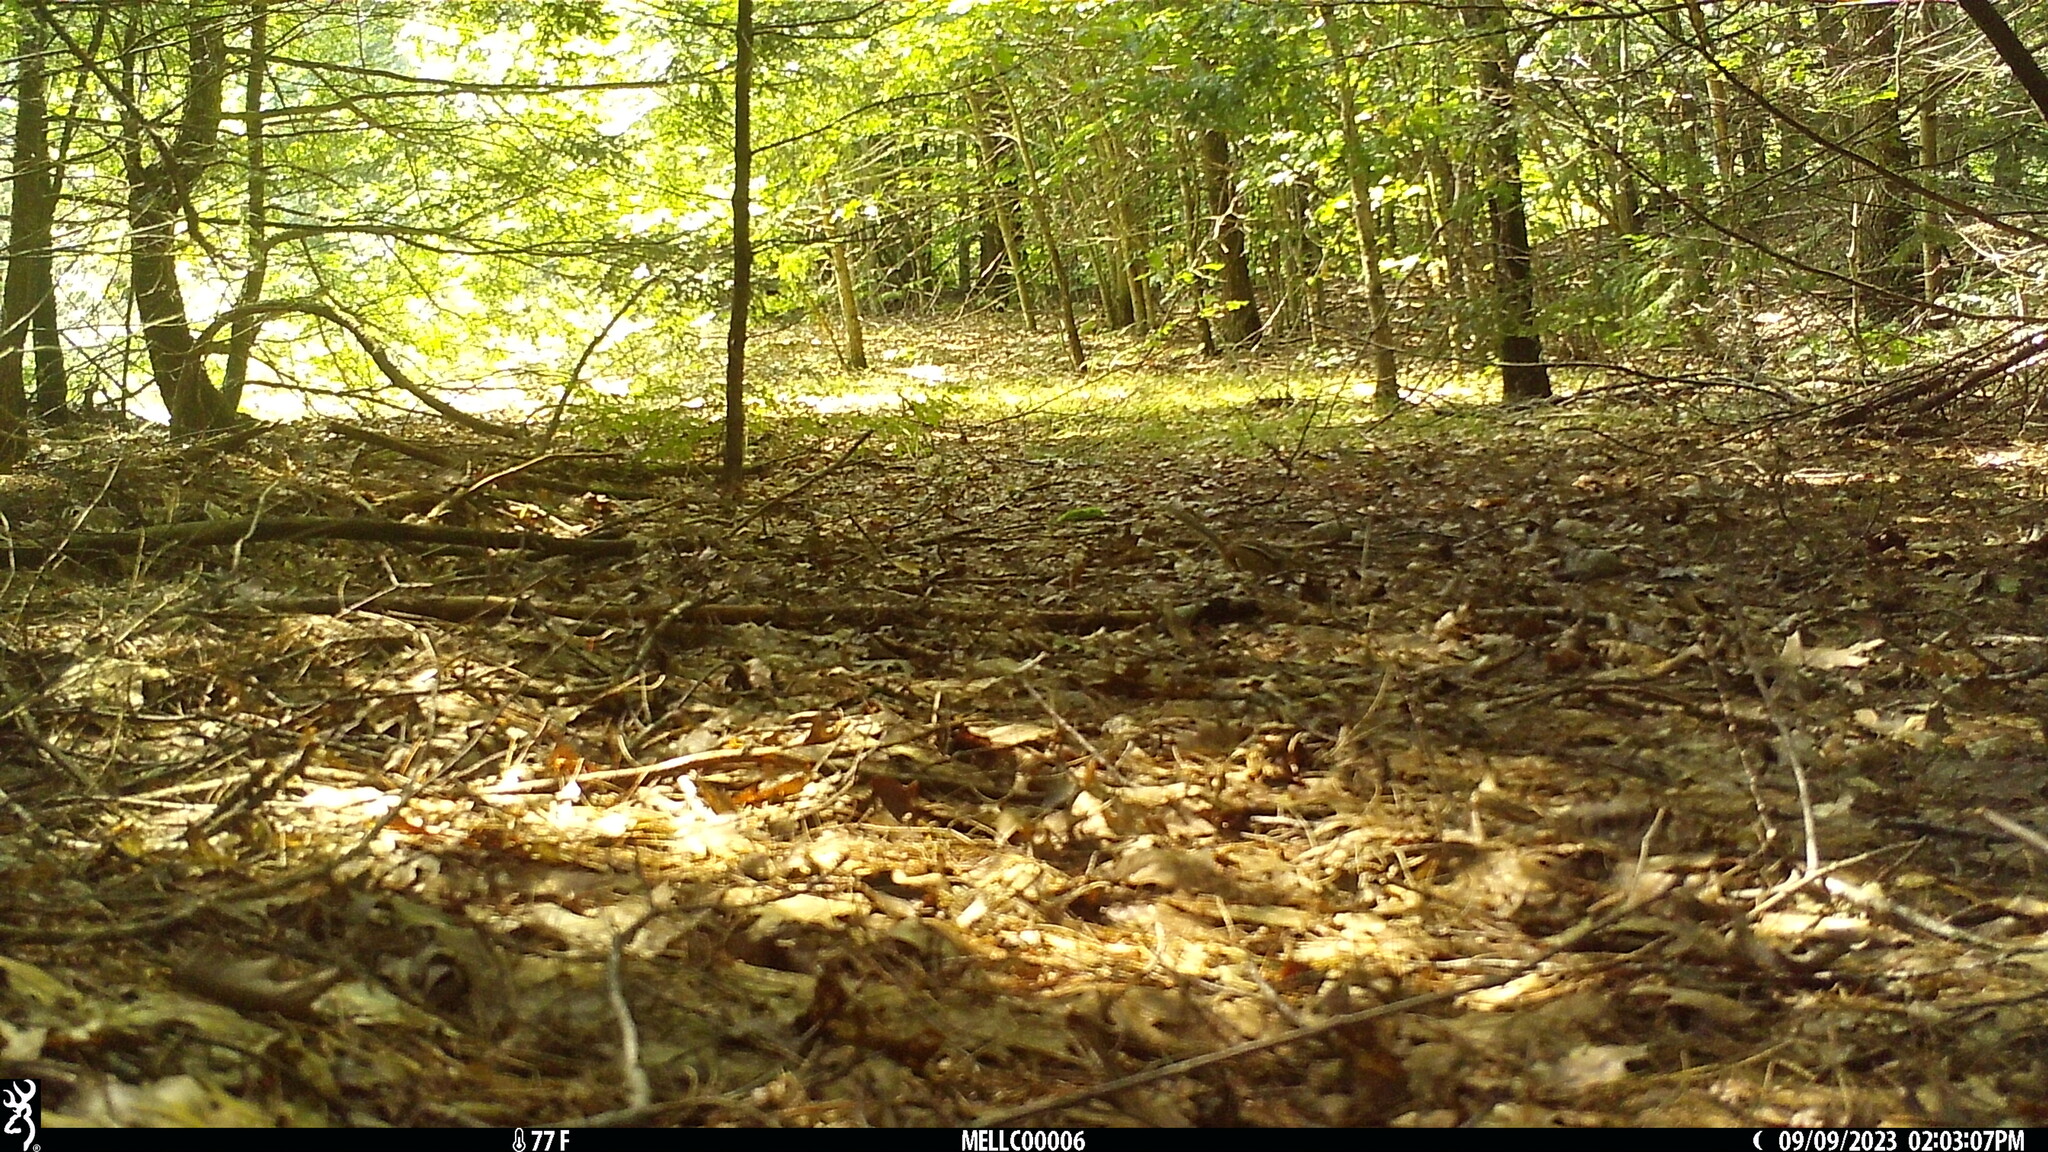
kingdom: Animalia
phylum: Chordata
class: Mammalia
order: Rodentia
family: Sciuridae
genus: Tamias
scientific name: Tamias striatus
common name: Eastern chipmunk
